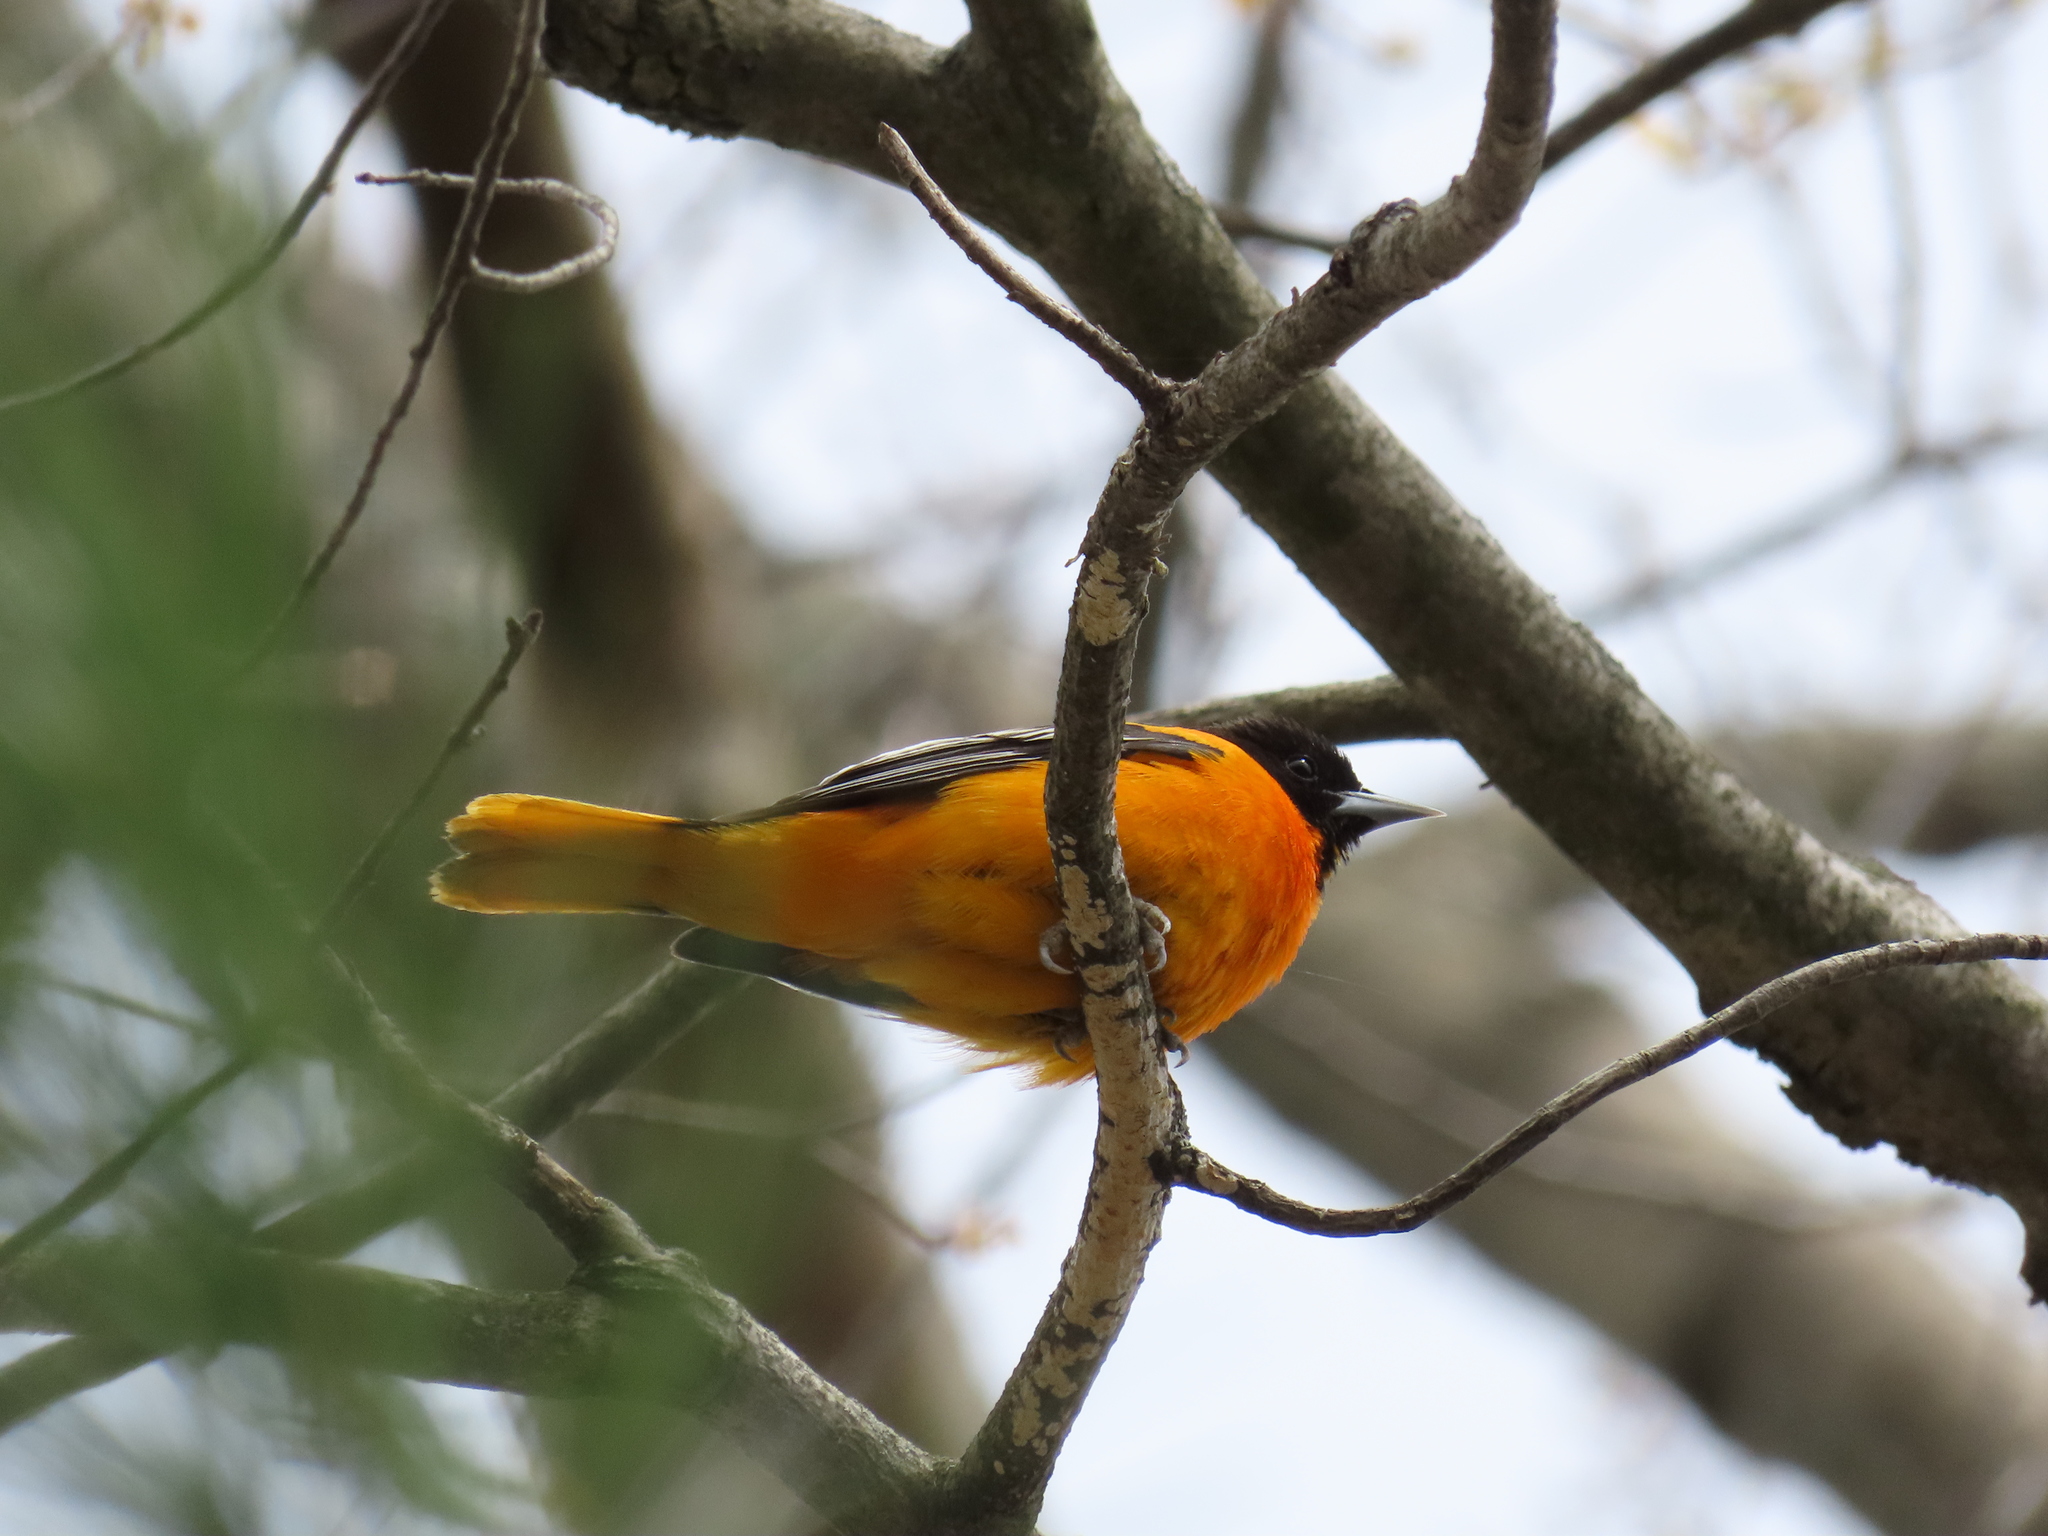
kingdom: Animalia
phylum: Chordata
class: Aves
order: Passeriformes
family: Icteridae
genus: Icterus
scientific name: Icterus galbula
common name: Baltimore oriole
